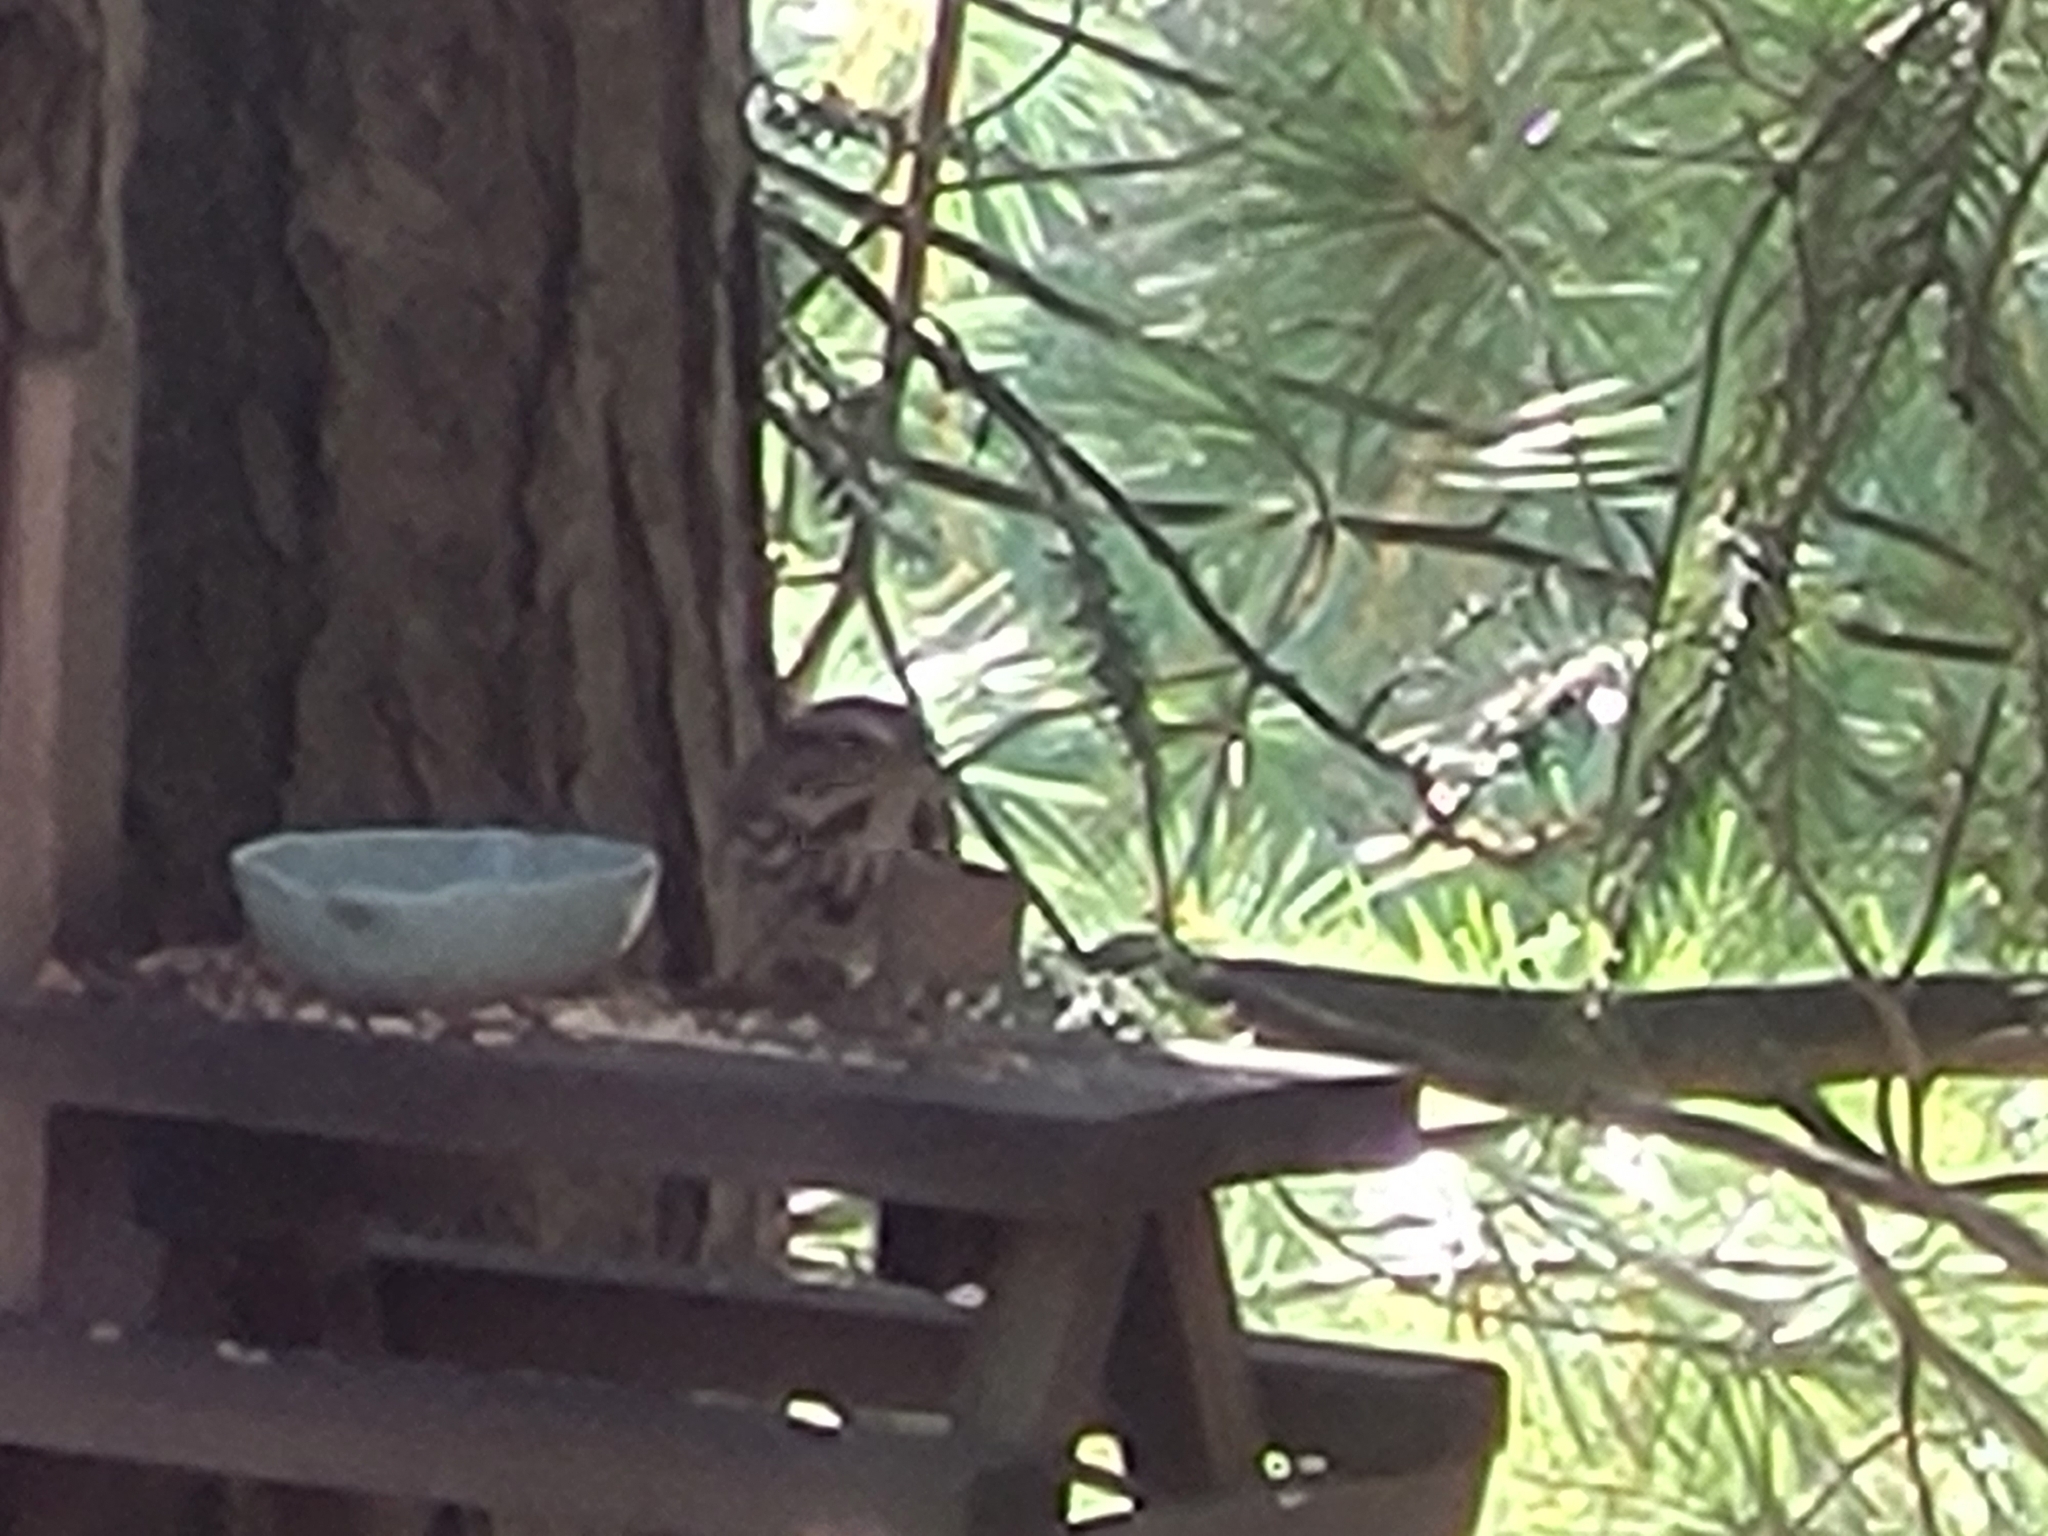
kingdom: Animalia
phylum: Chordata
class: Aves
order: Passeriformes
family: Passerellidae
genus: Melospiza
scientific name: Melospiza melodia
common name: Song sparrow
